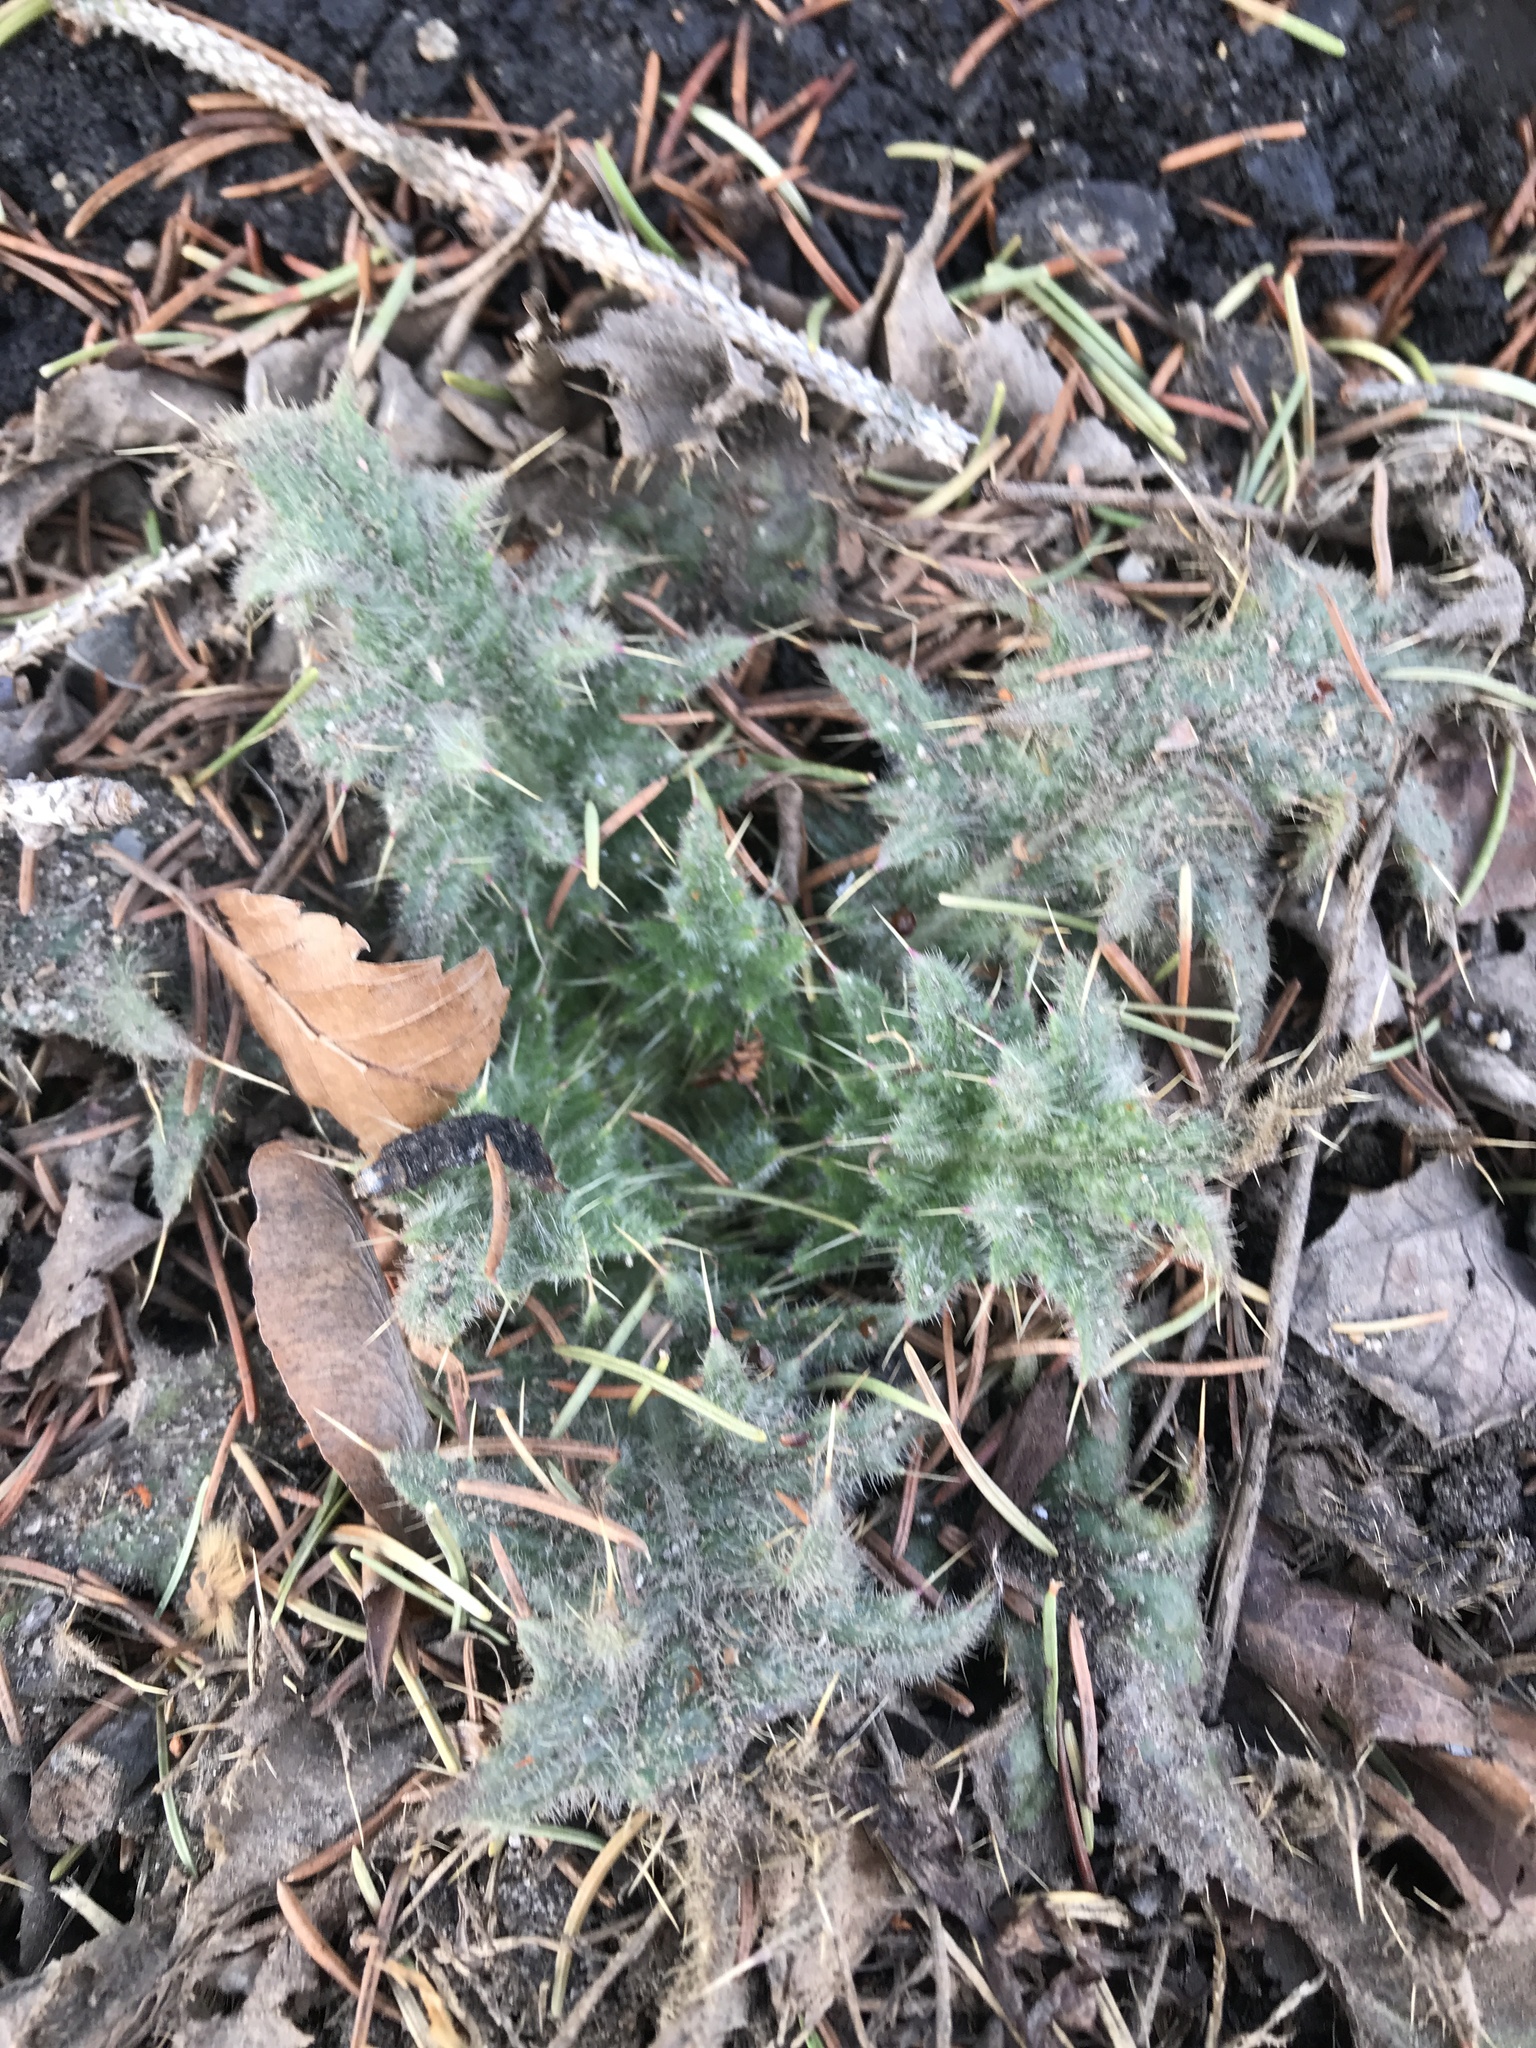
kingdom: Plantae
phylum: Tracheophyta
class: Magnoliopsida
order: Asterales
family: Asteraceae
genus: Cirsium
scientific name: Cirsium vulgare
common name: Bull thistle
